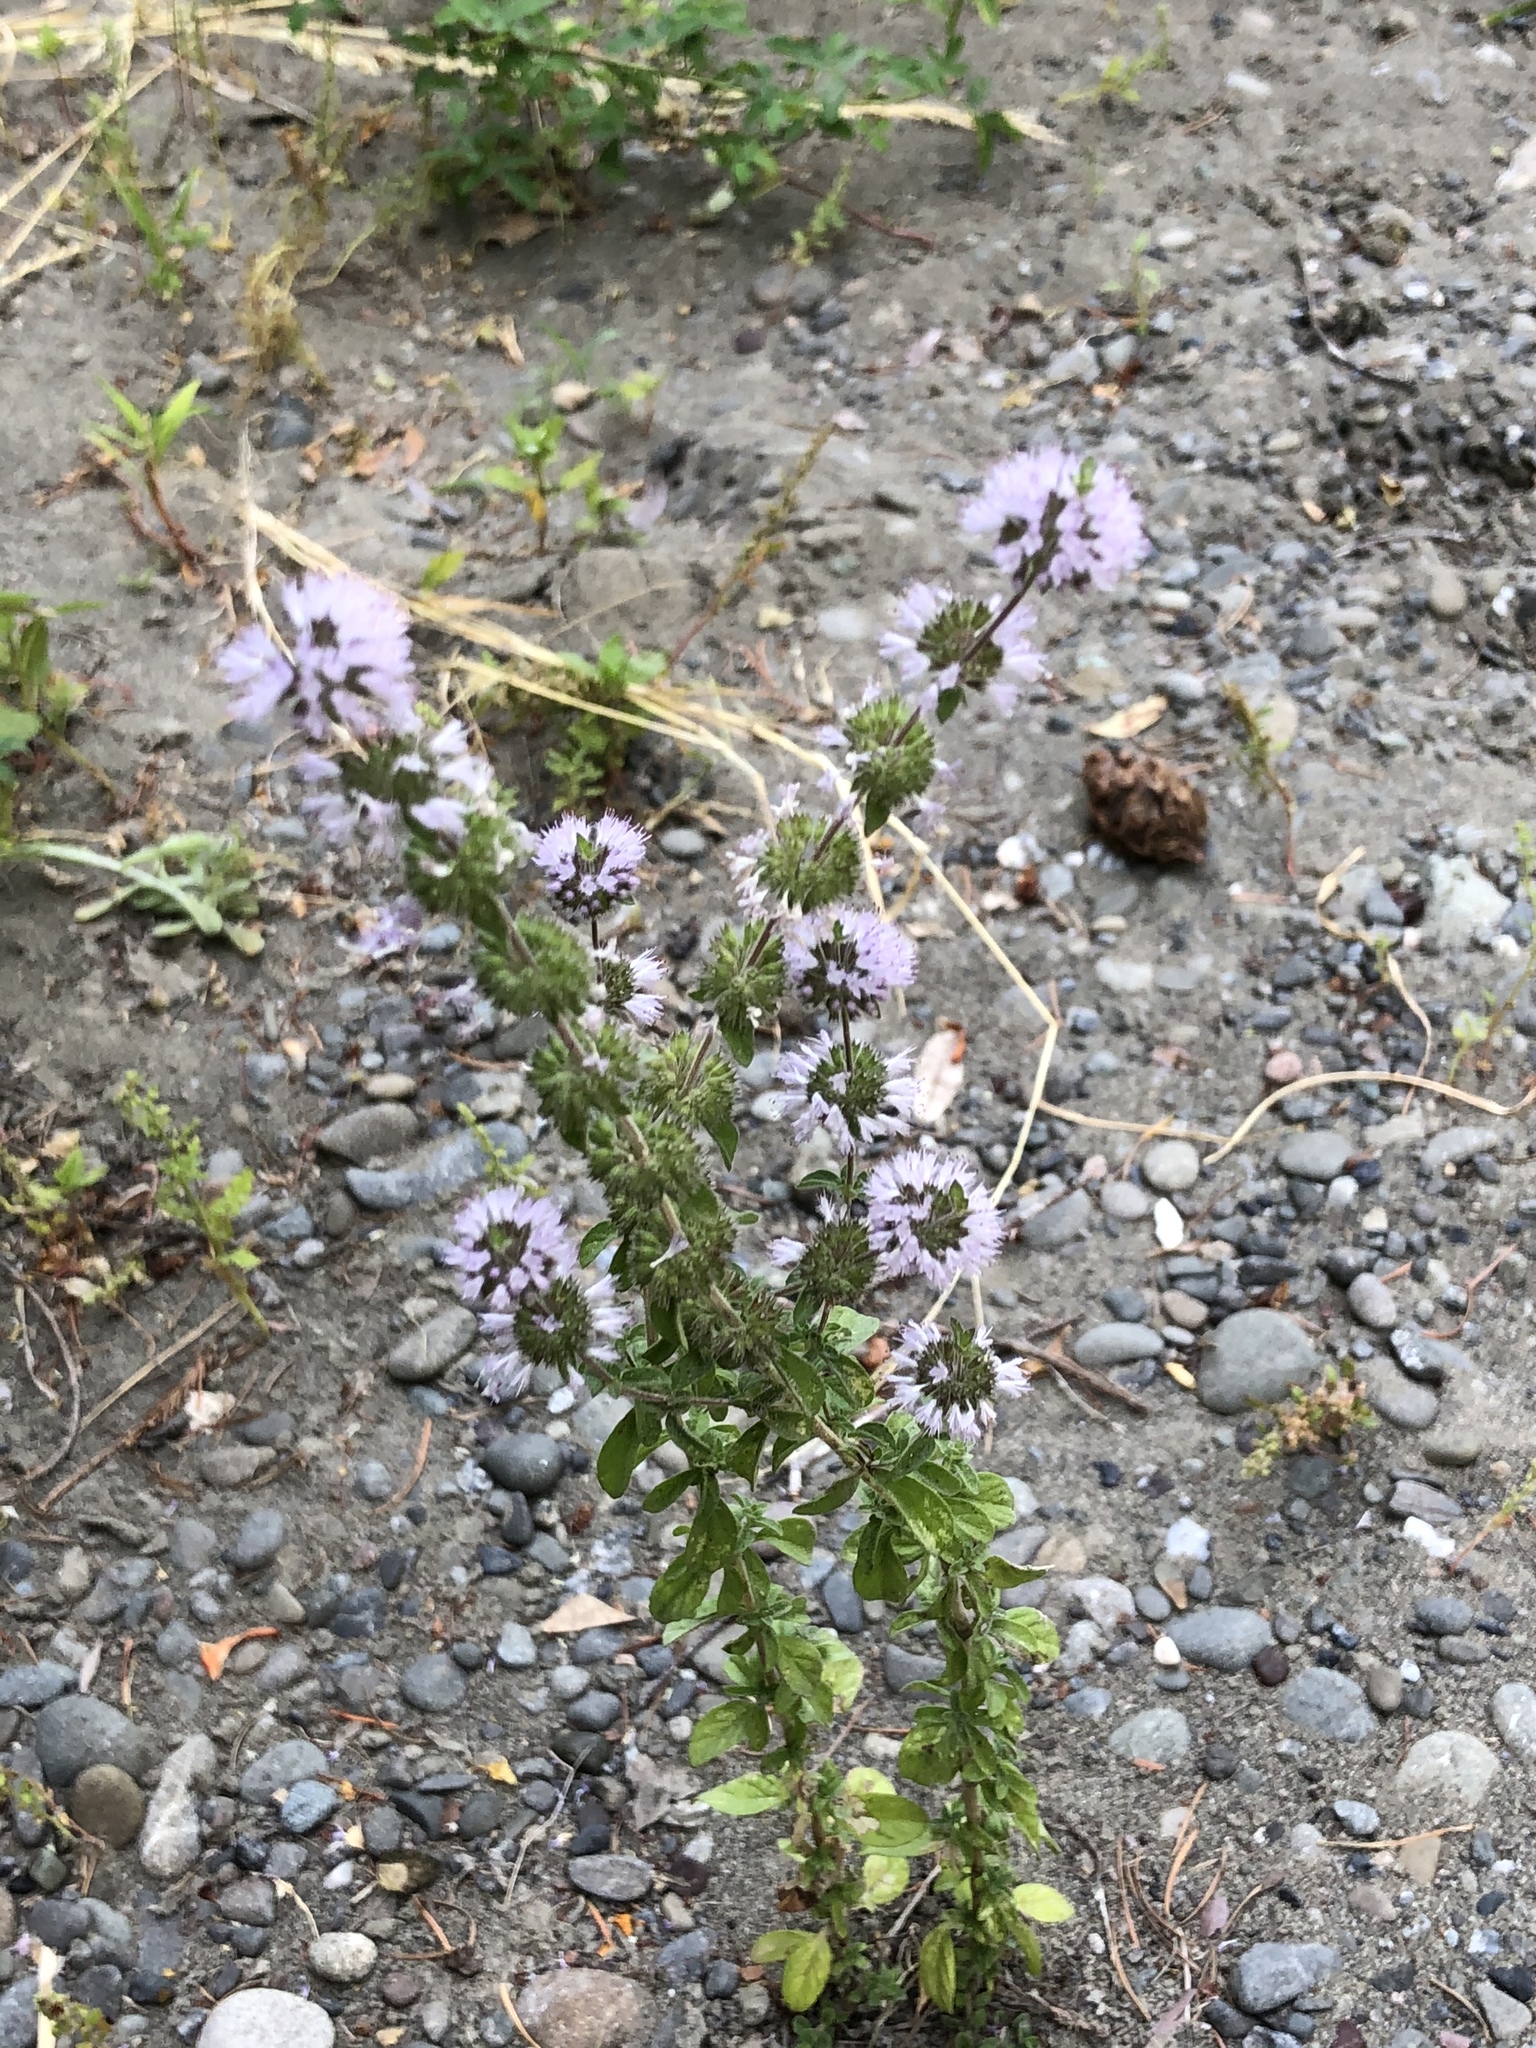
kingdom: Plantae
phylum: Tracheophyta
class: Magnoliopsida
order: Lamiales
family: Lamiaceae
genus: Mentha
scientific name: Mentha pulegium
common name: Pennyroyal
